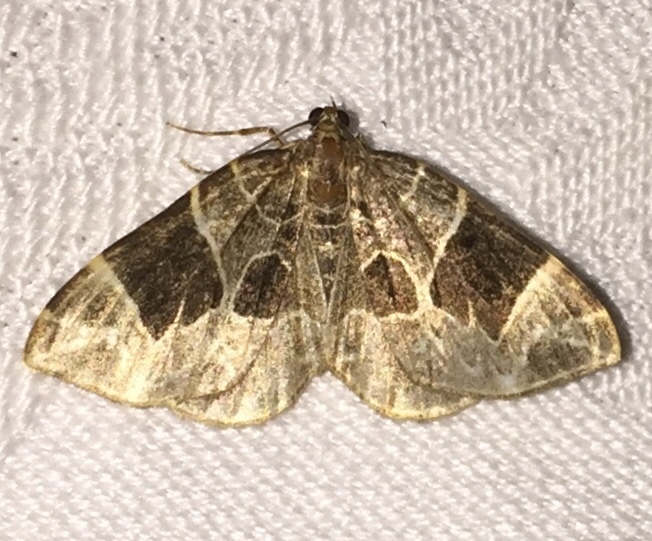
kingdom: Animalia
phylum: Arthropoda
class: Insecta
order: Lepidoptera
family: Geometridae
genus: Ecliptopera
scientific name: Ecliptopera atricolorata
